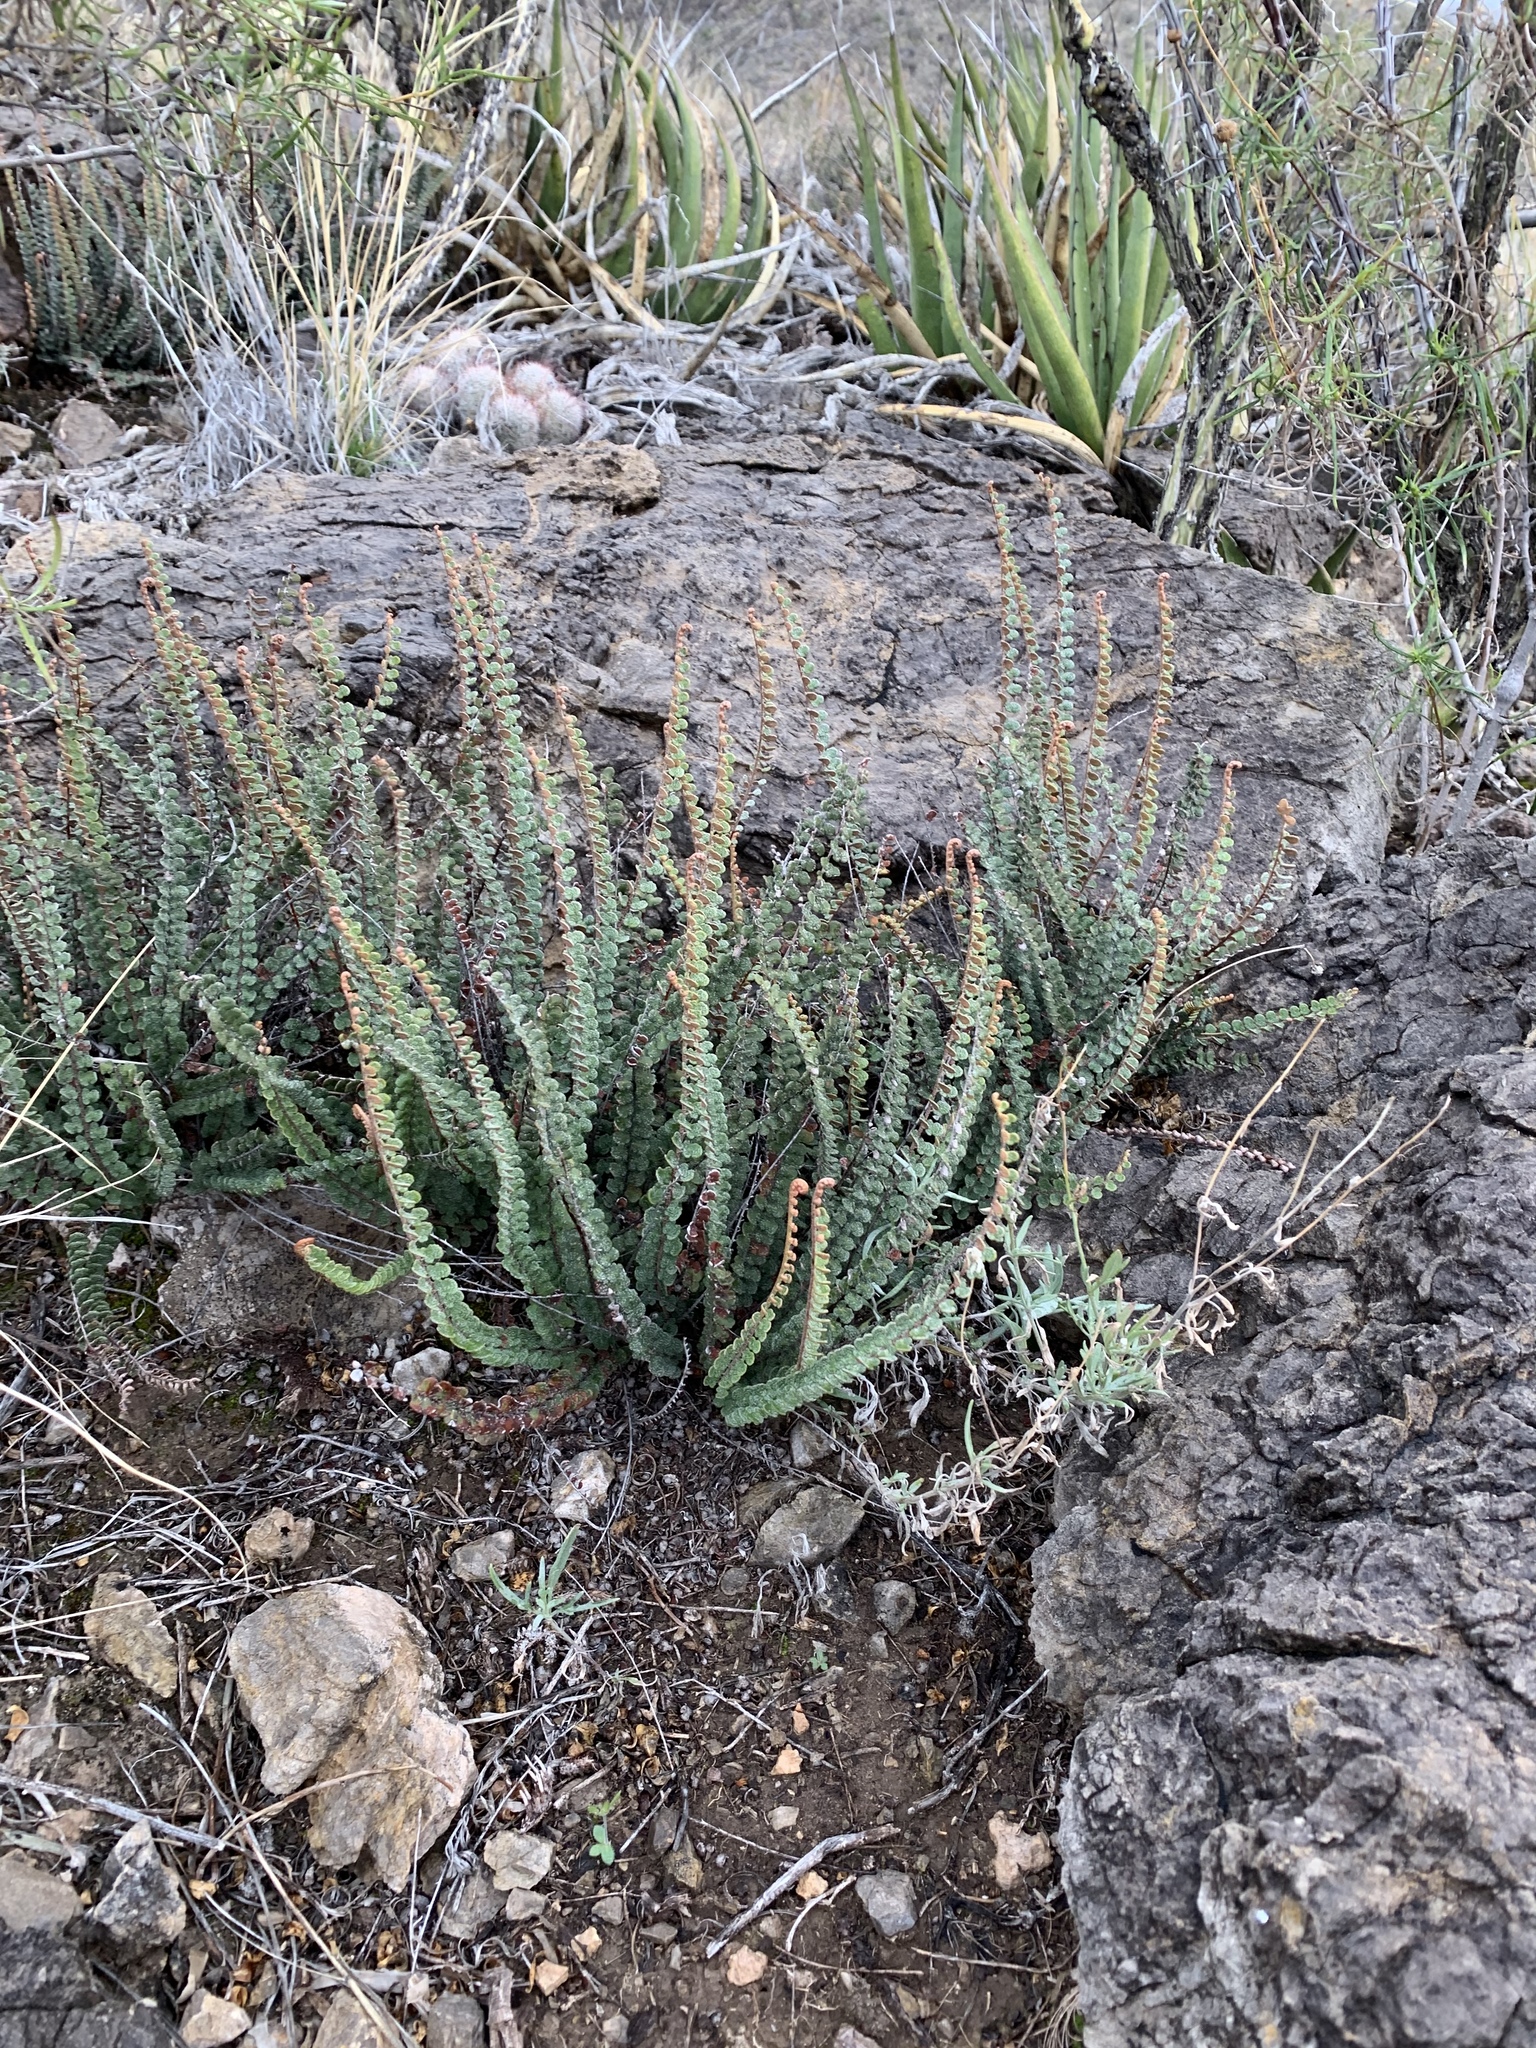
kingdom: Plantae
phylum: Tracheophyta
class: Polypodiopsida
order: Polypodiales
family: Pteridaceae
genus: Astrolepis
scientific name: Astrolepis cochisensis
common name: Scaly cloak fern
